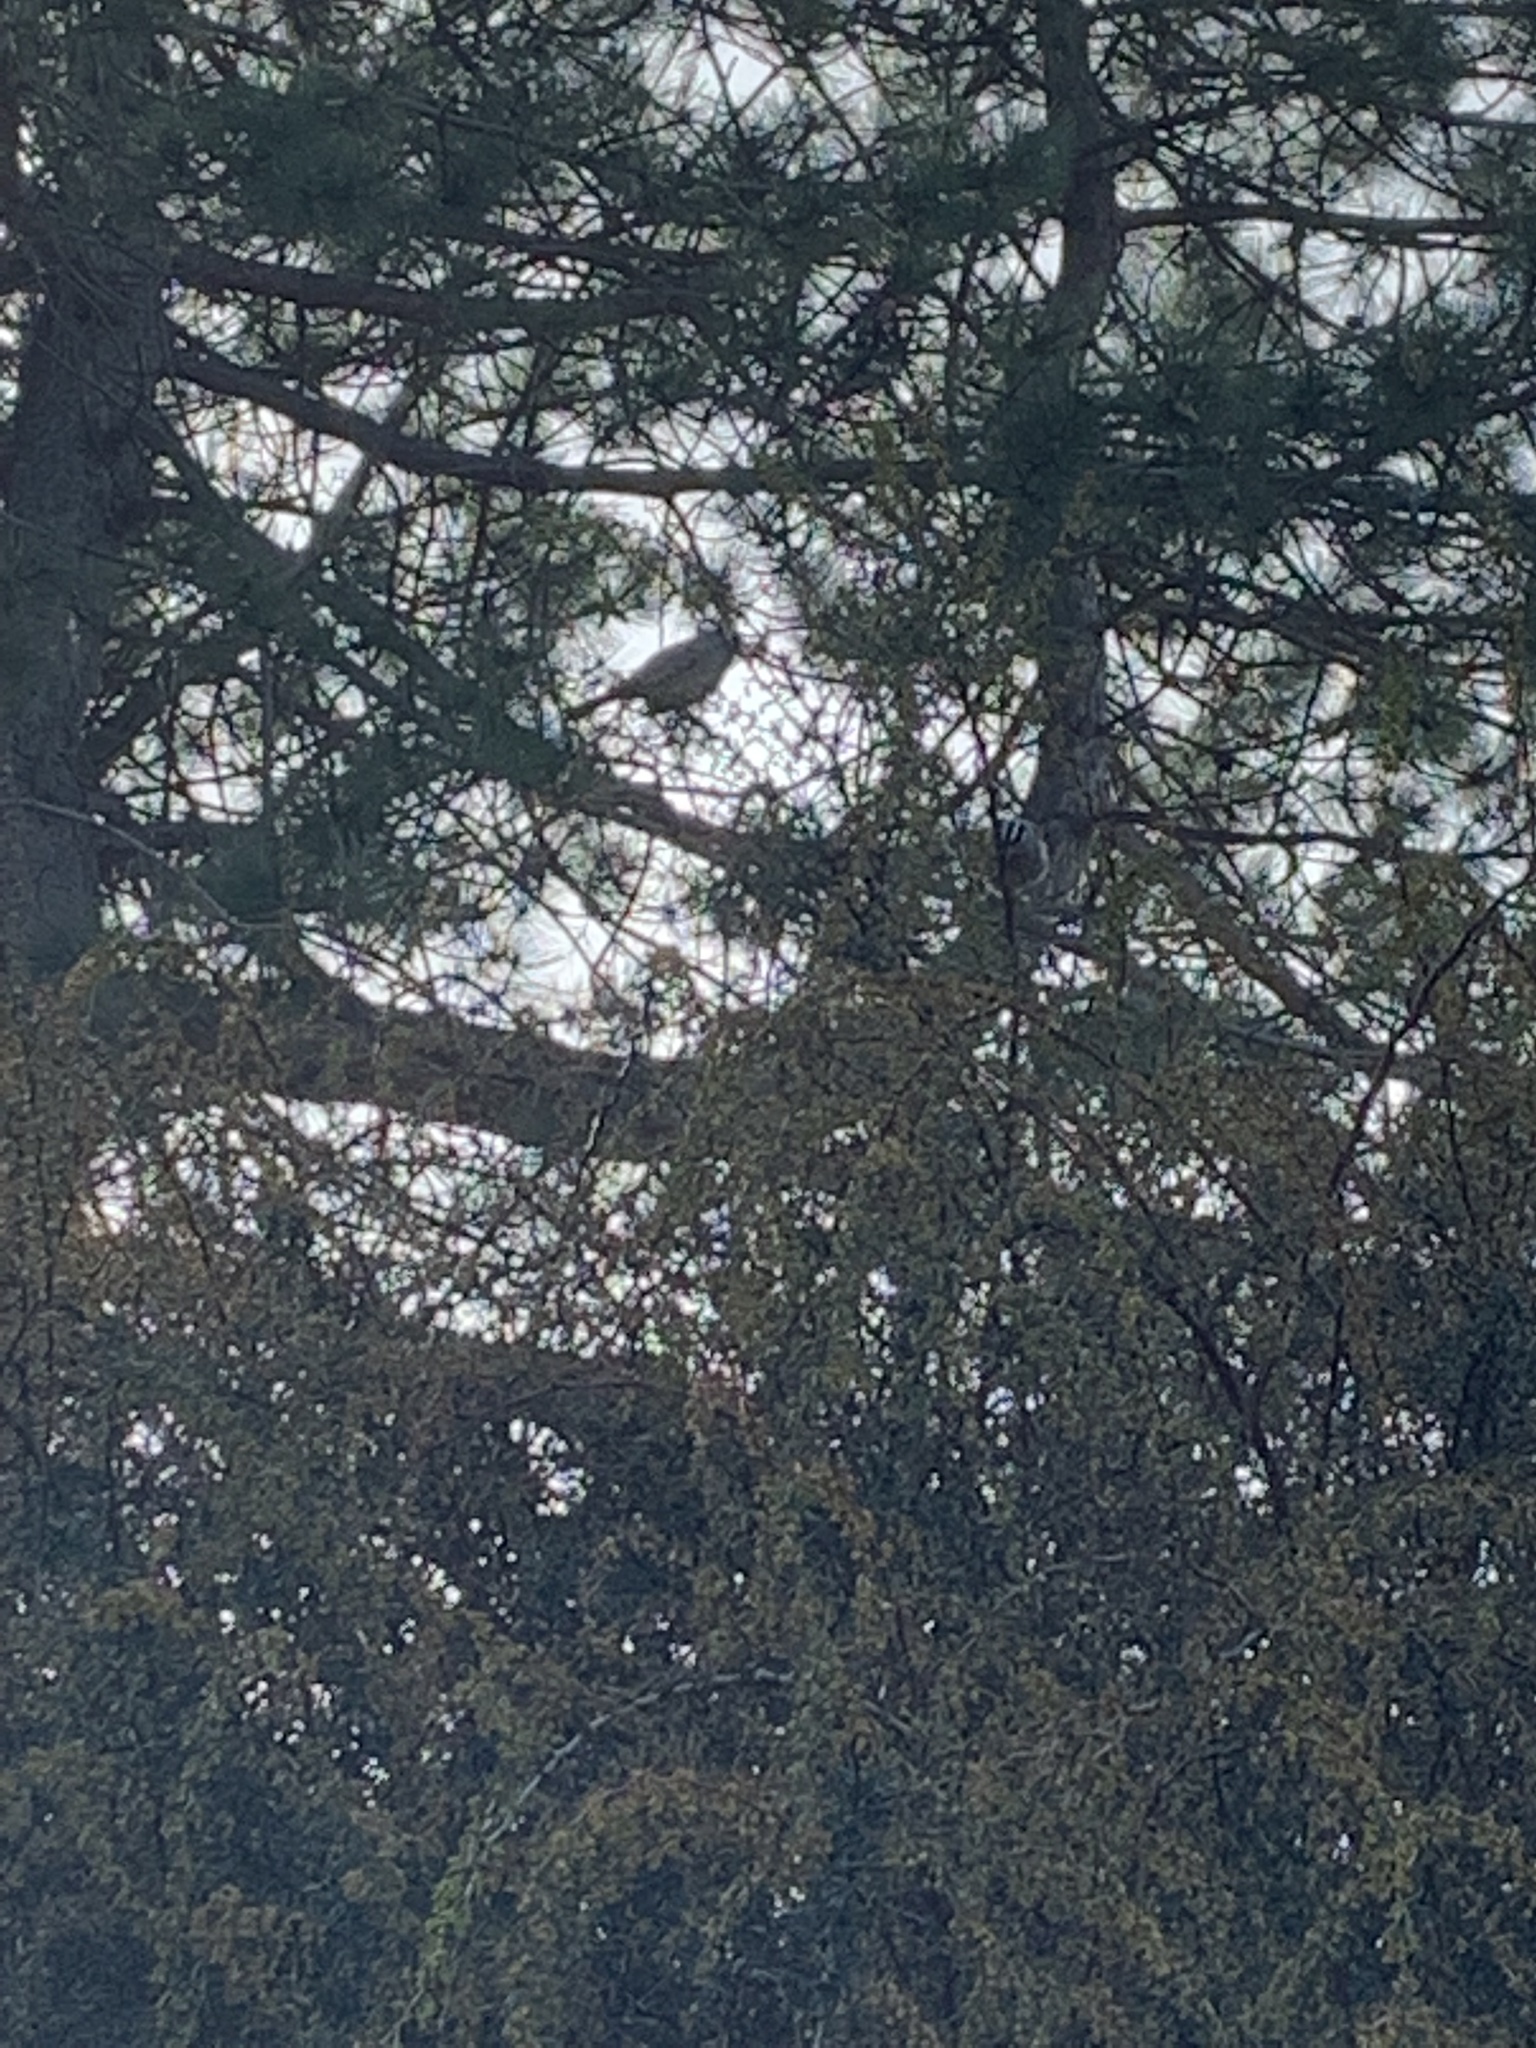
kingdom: Animalia
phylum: Chordata
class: Aves
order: Passeriformes
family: Passerellidae
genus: Zonotrichia
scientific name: Zonotrichia leucophrys
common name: White-crowned sparrow
